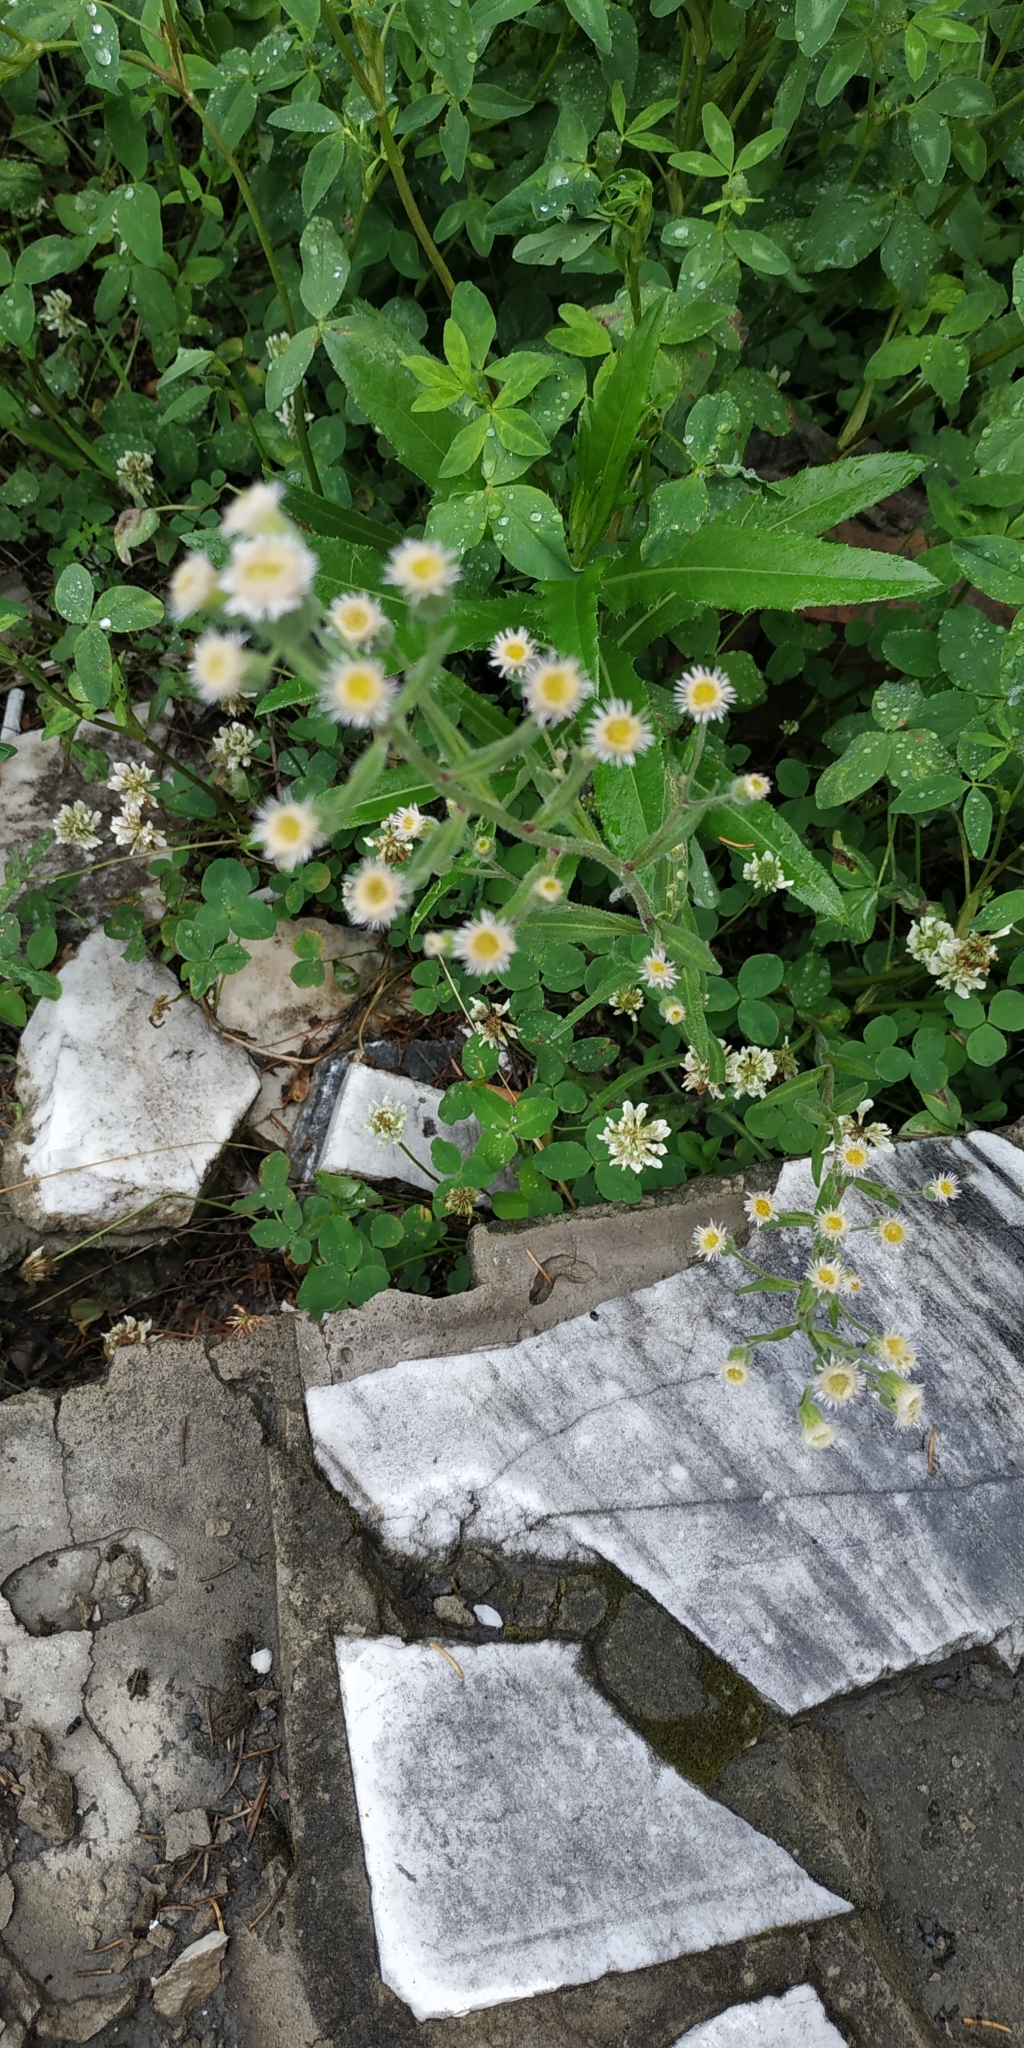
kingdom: Plantae
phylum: Tracheophyta
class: Magnoliopsida
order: Asterales
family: Asteraceae
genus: Erigeron
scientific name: Erigeron acris
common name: Blue fleabane
